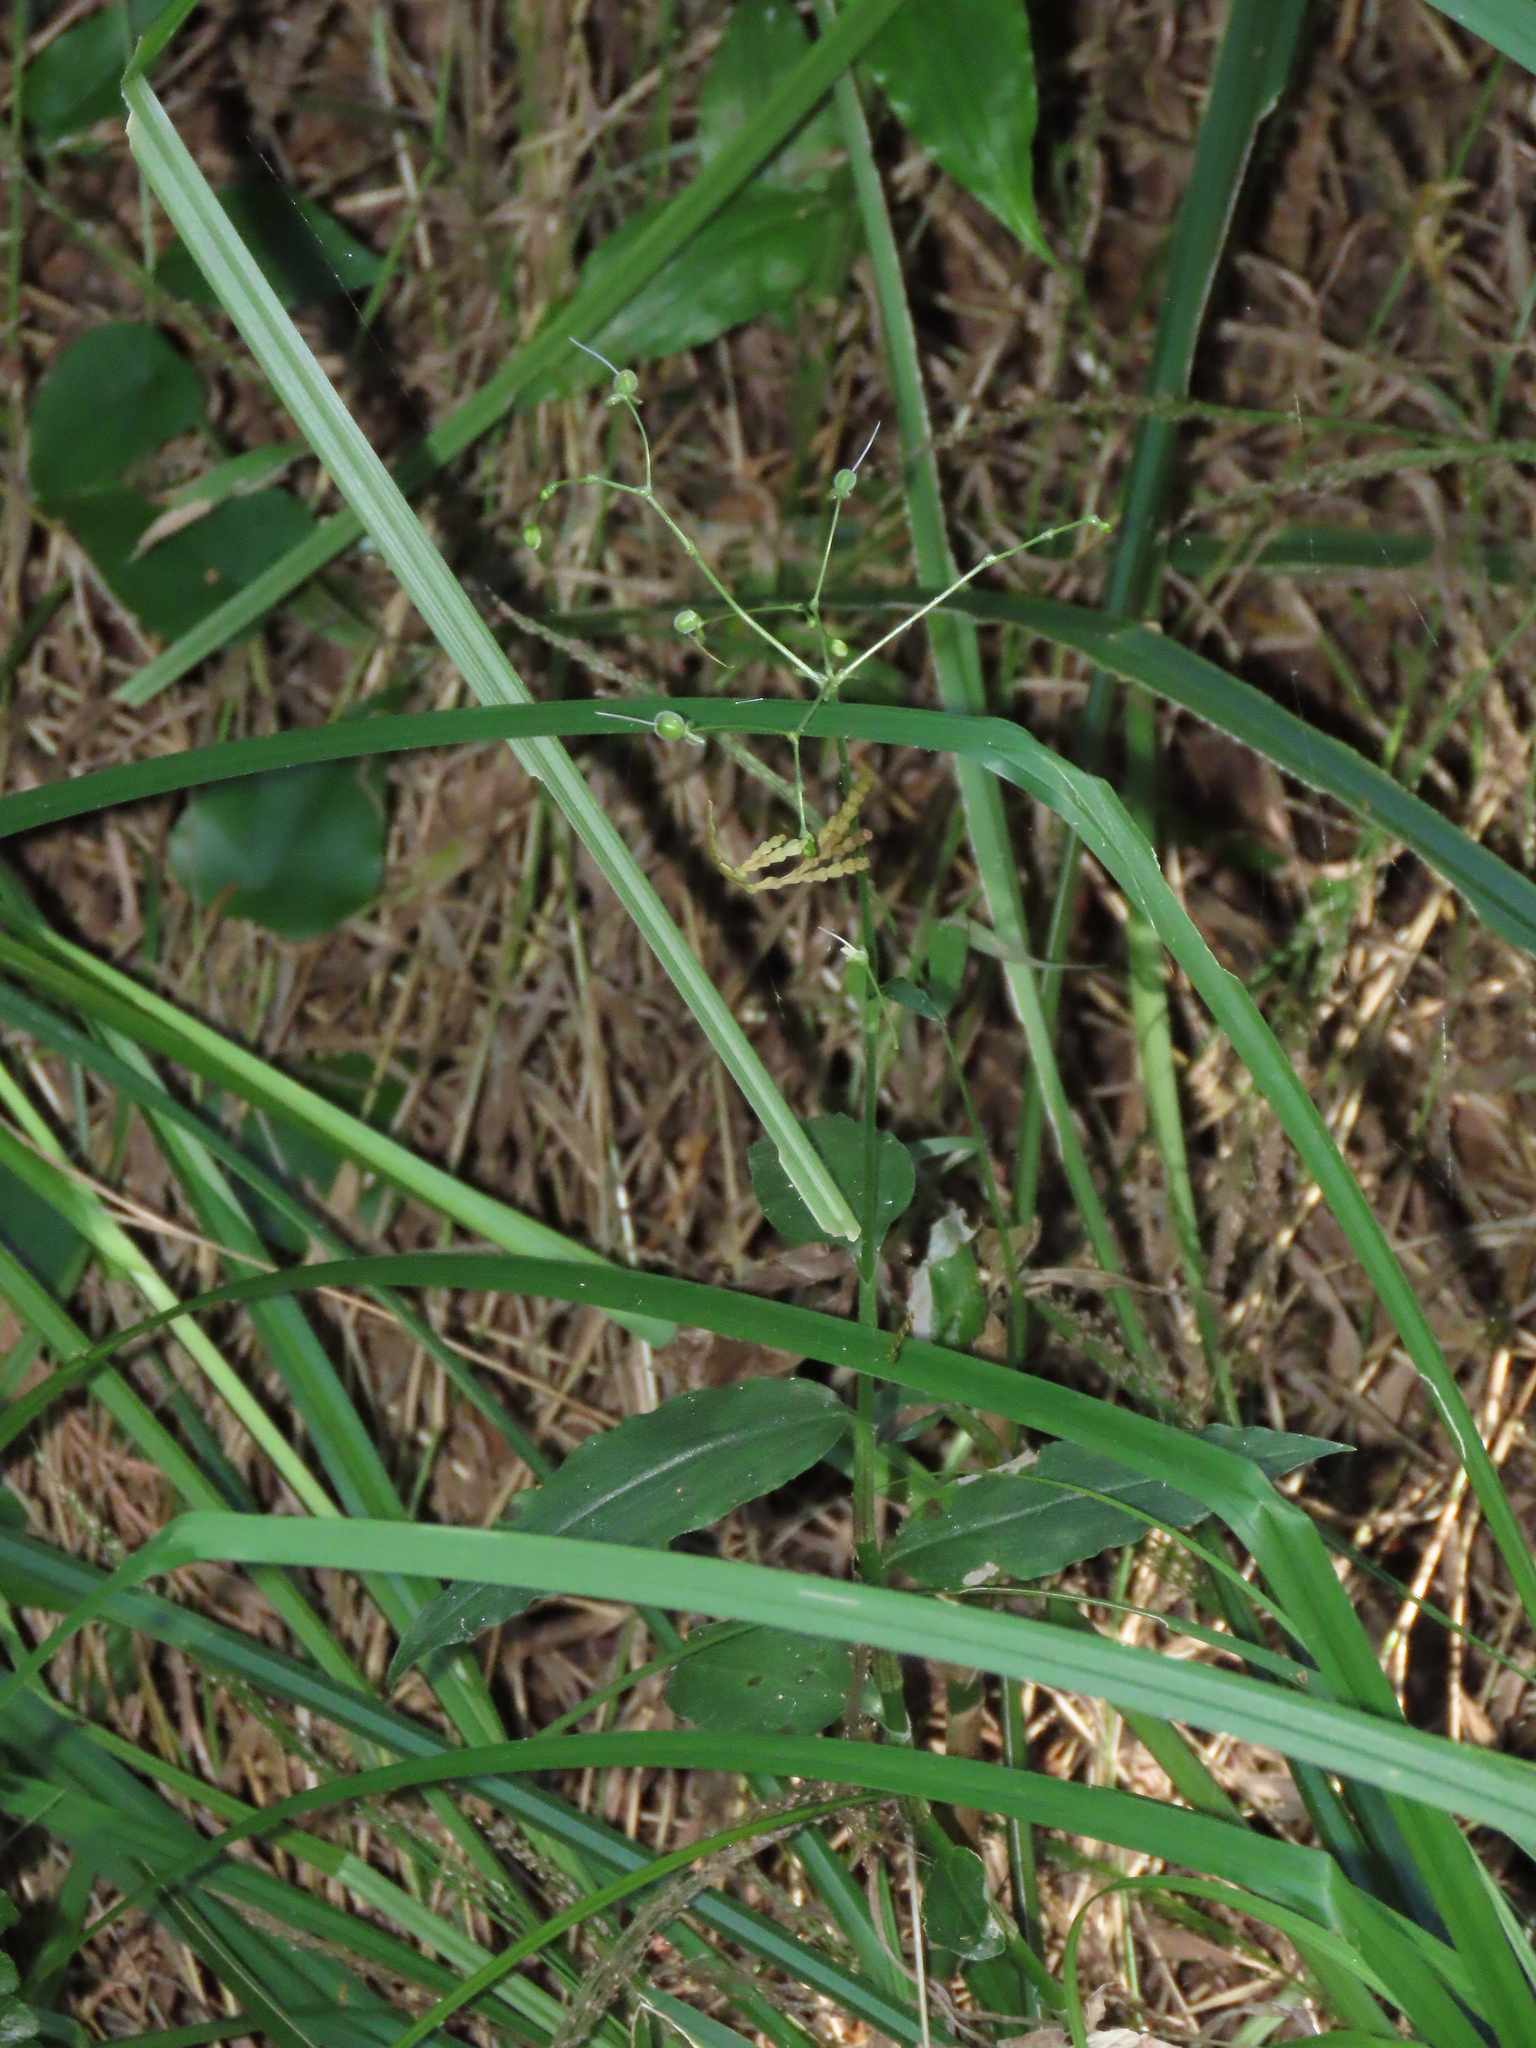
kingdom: Plantae
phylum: Tracheophyta
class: Liliopsida
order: Commelinales
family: Commelinaceae
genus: Rhopalephora
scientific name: Rhopalephora scaberrima
